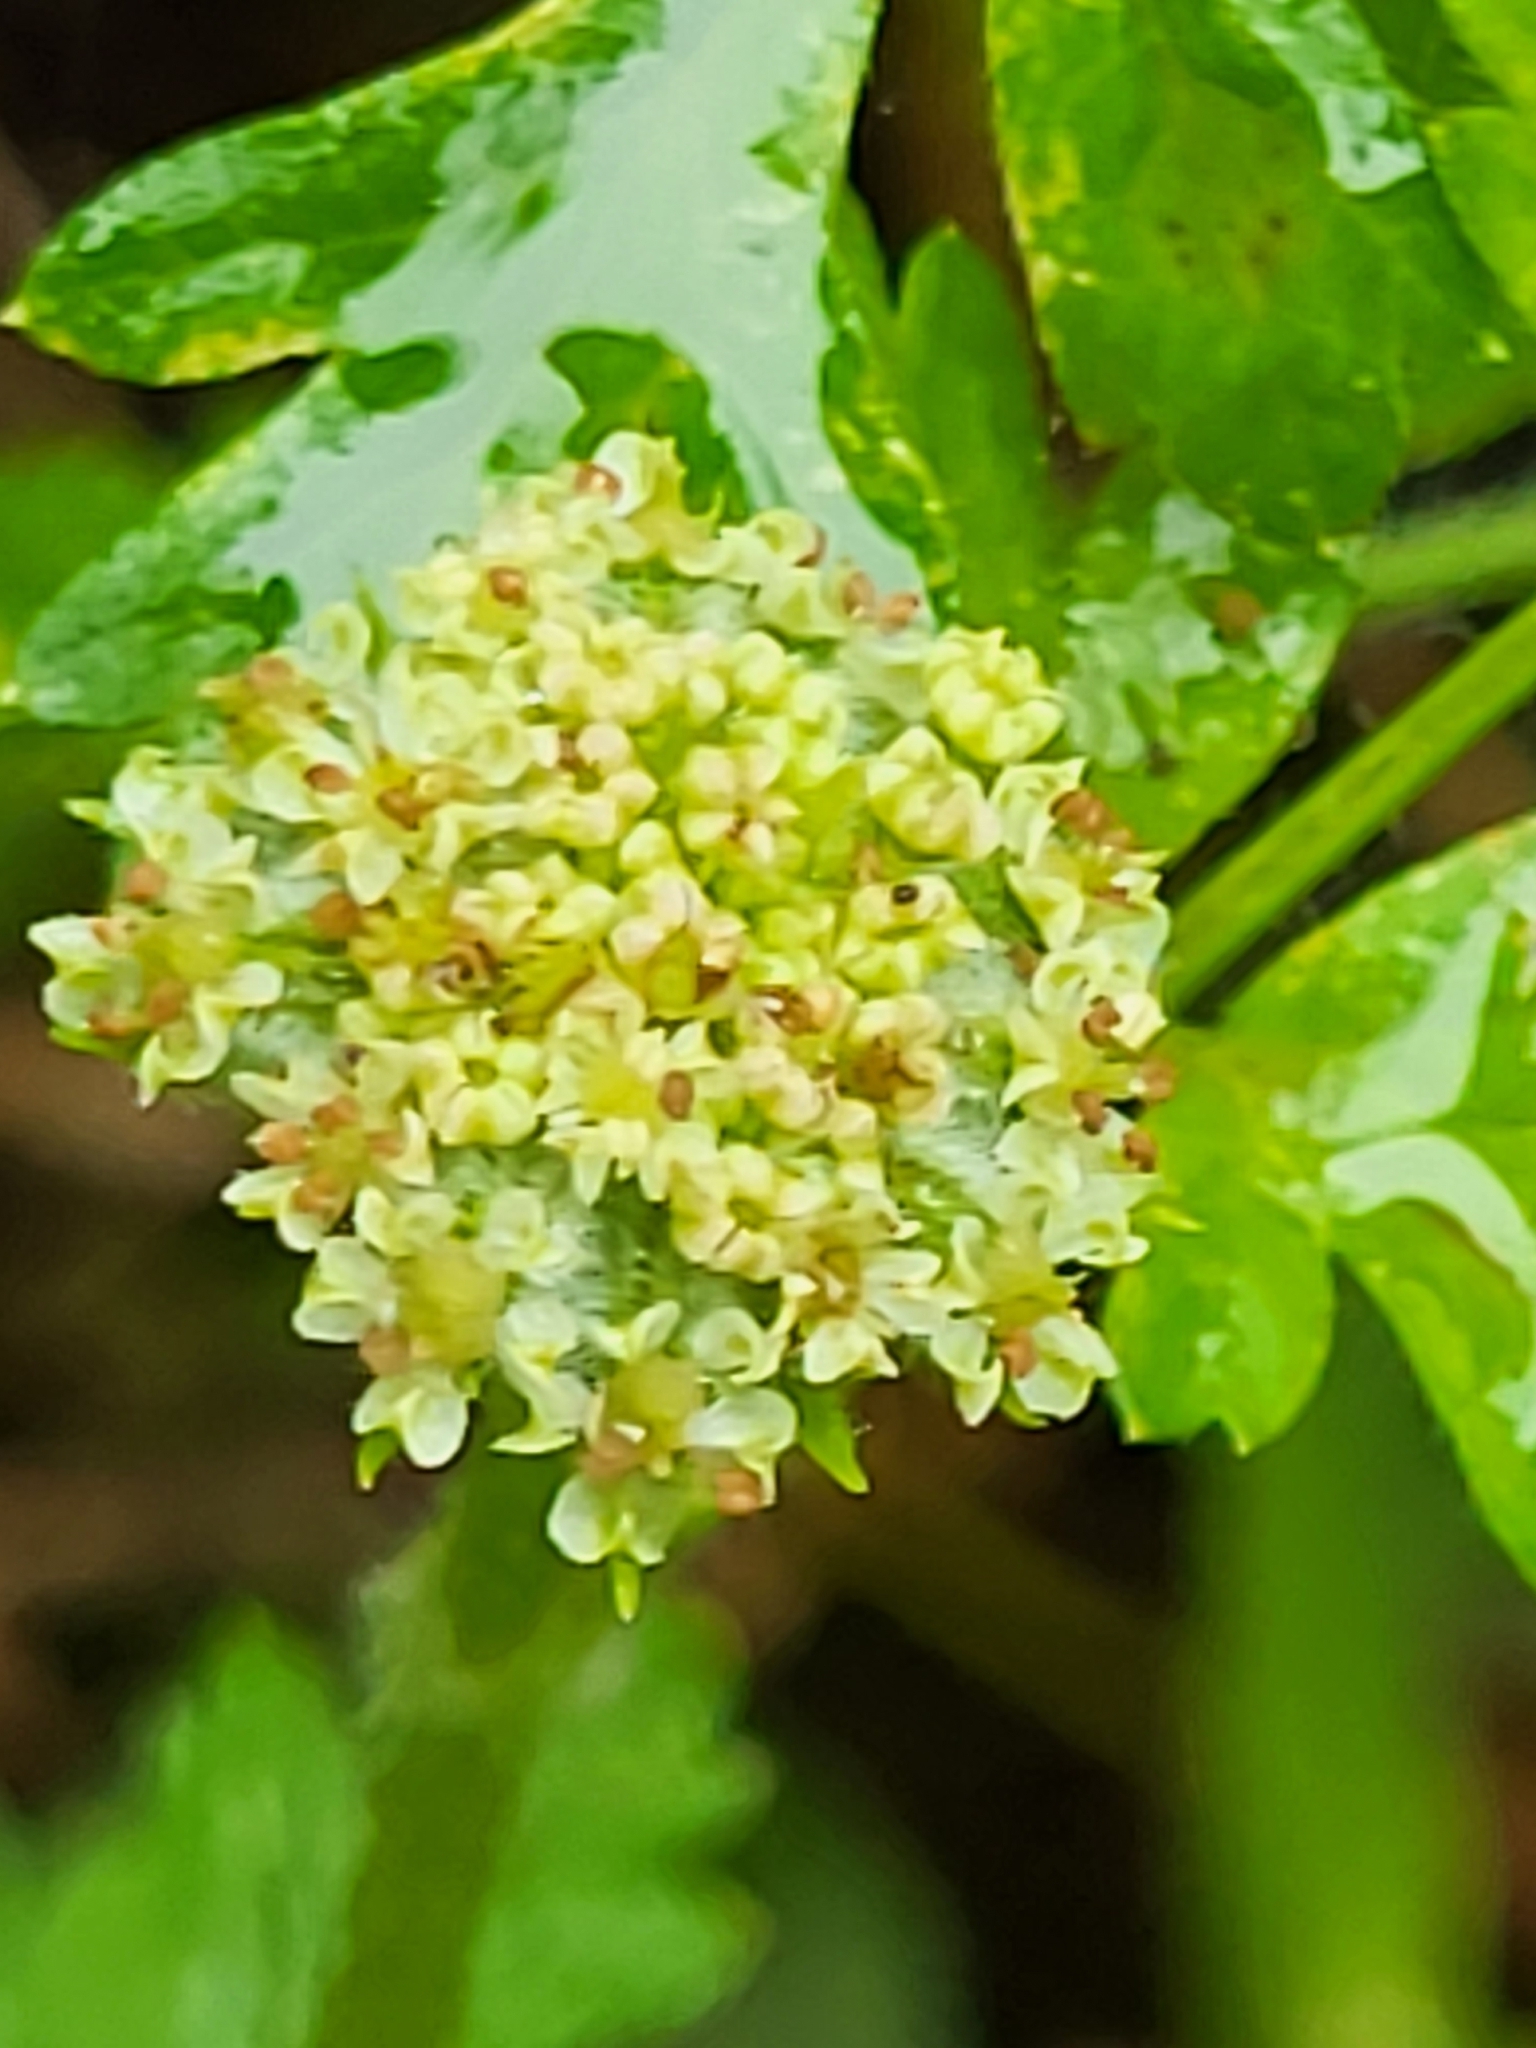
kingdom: Plantae
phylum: Tracheophyta
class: Magnoliopsida
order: Apiales
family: Apiaceae
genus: Daucus
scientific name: Daucus incognitus
